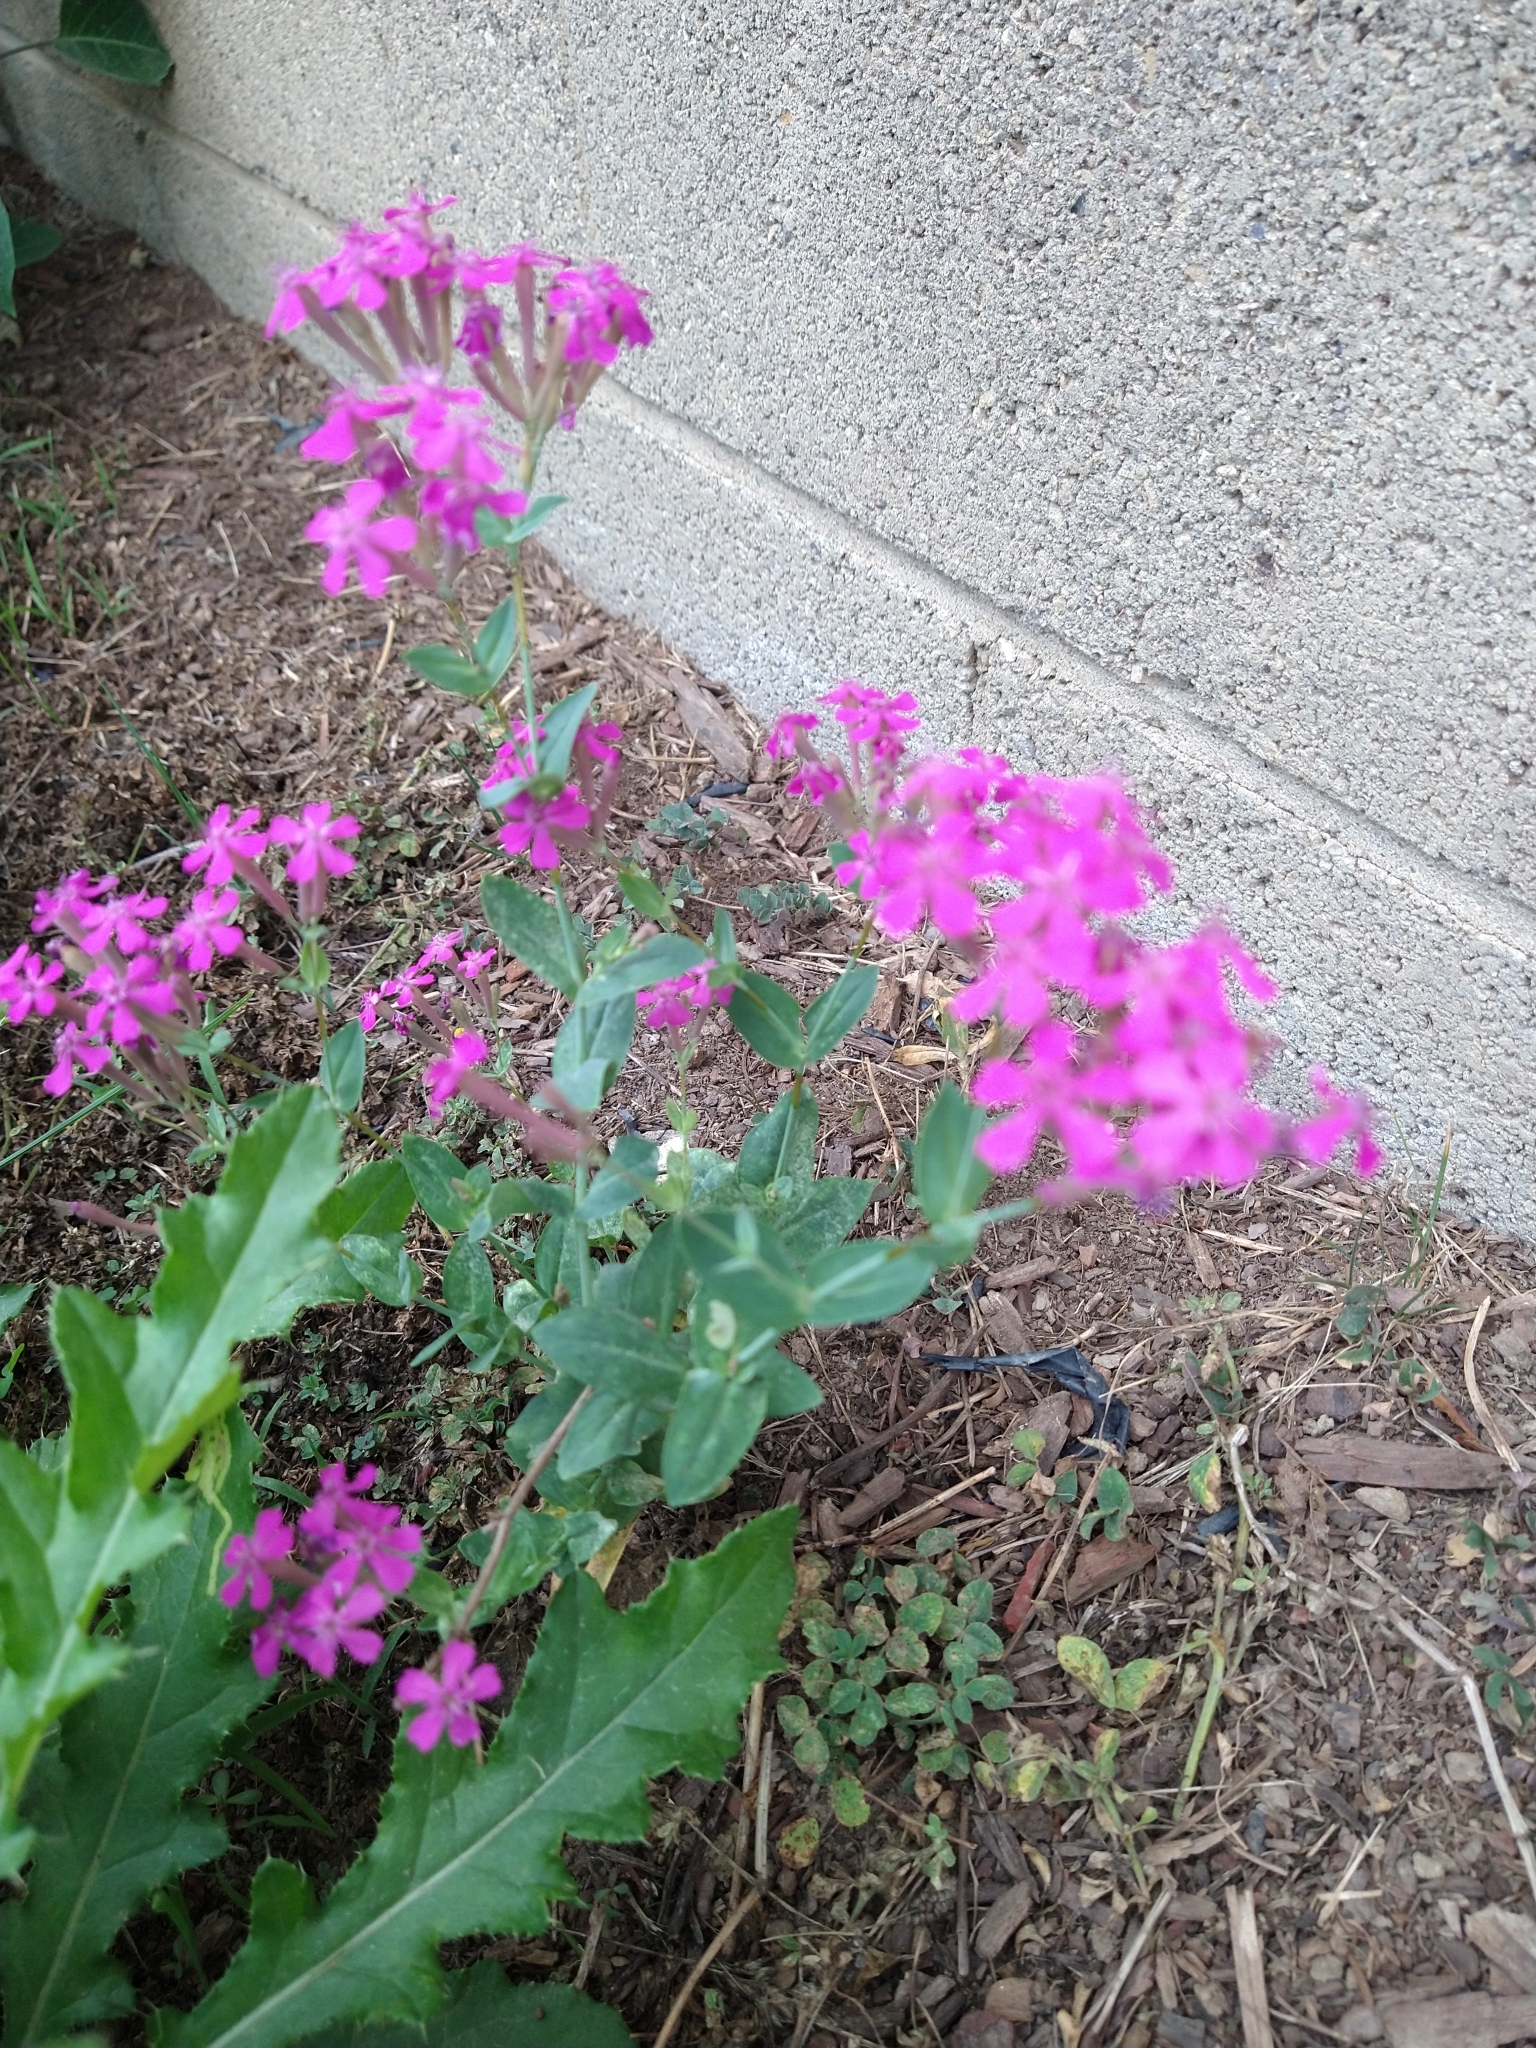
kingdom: Plantae
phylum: Tracheophyta
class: Magnoliopsida
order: Caryophyllales
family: Caryophyllaceae
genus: Atocion
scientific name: Atocion armeria
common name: Sweet william catchfly
